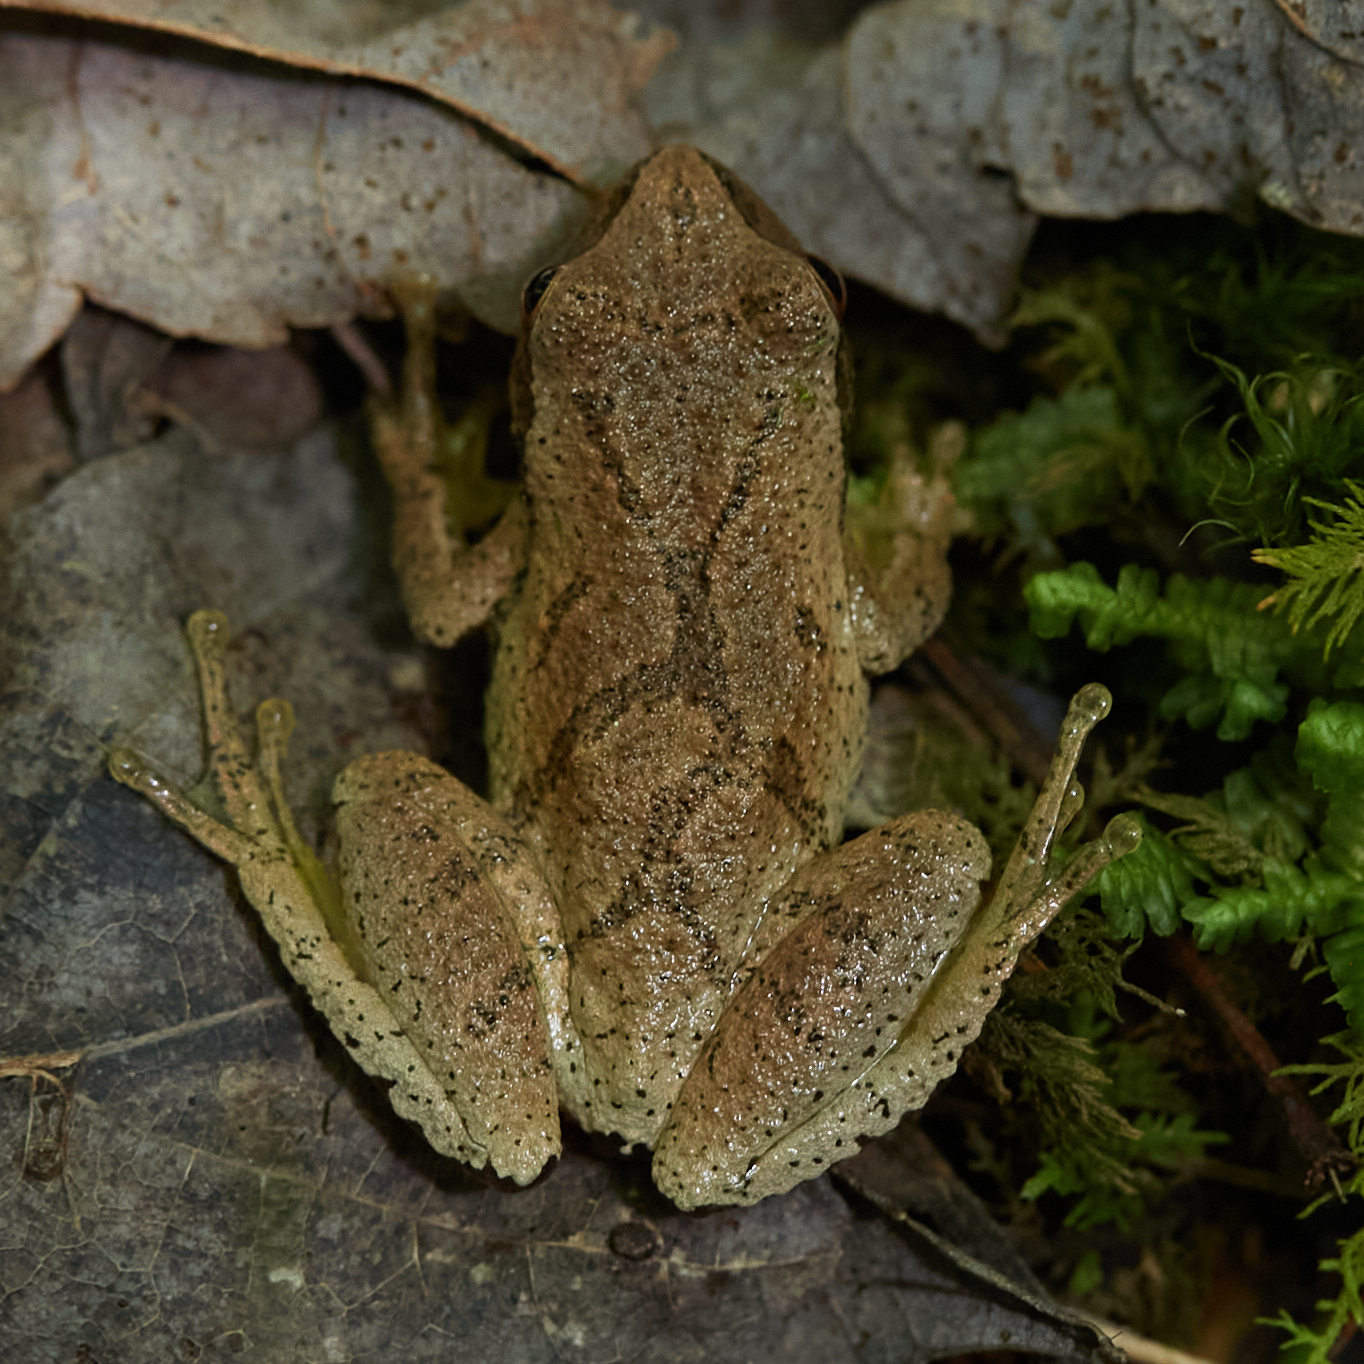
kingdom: Animalia
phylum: Chordata
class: Amphibia
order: Anura
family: Hylidae
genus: Pseudacris
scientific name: Pseudacris crucifer
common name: Spring peeper
